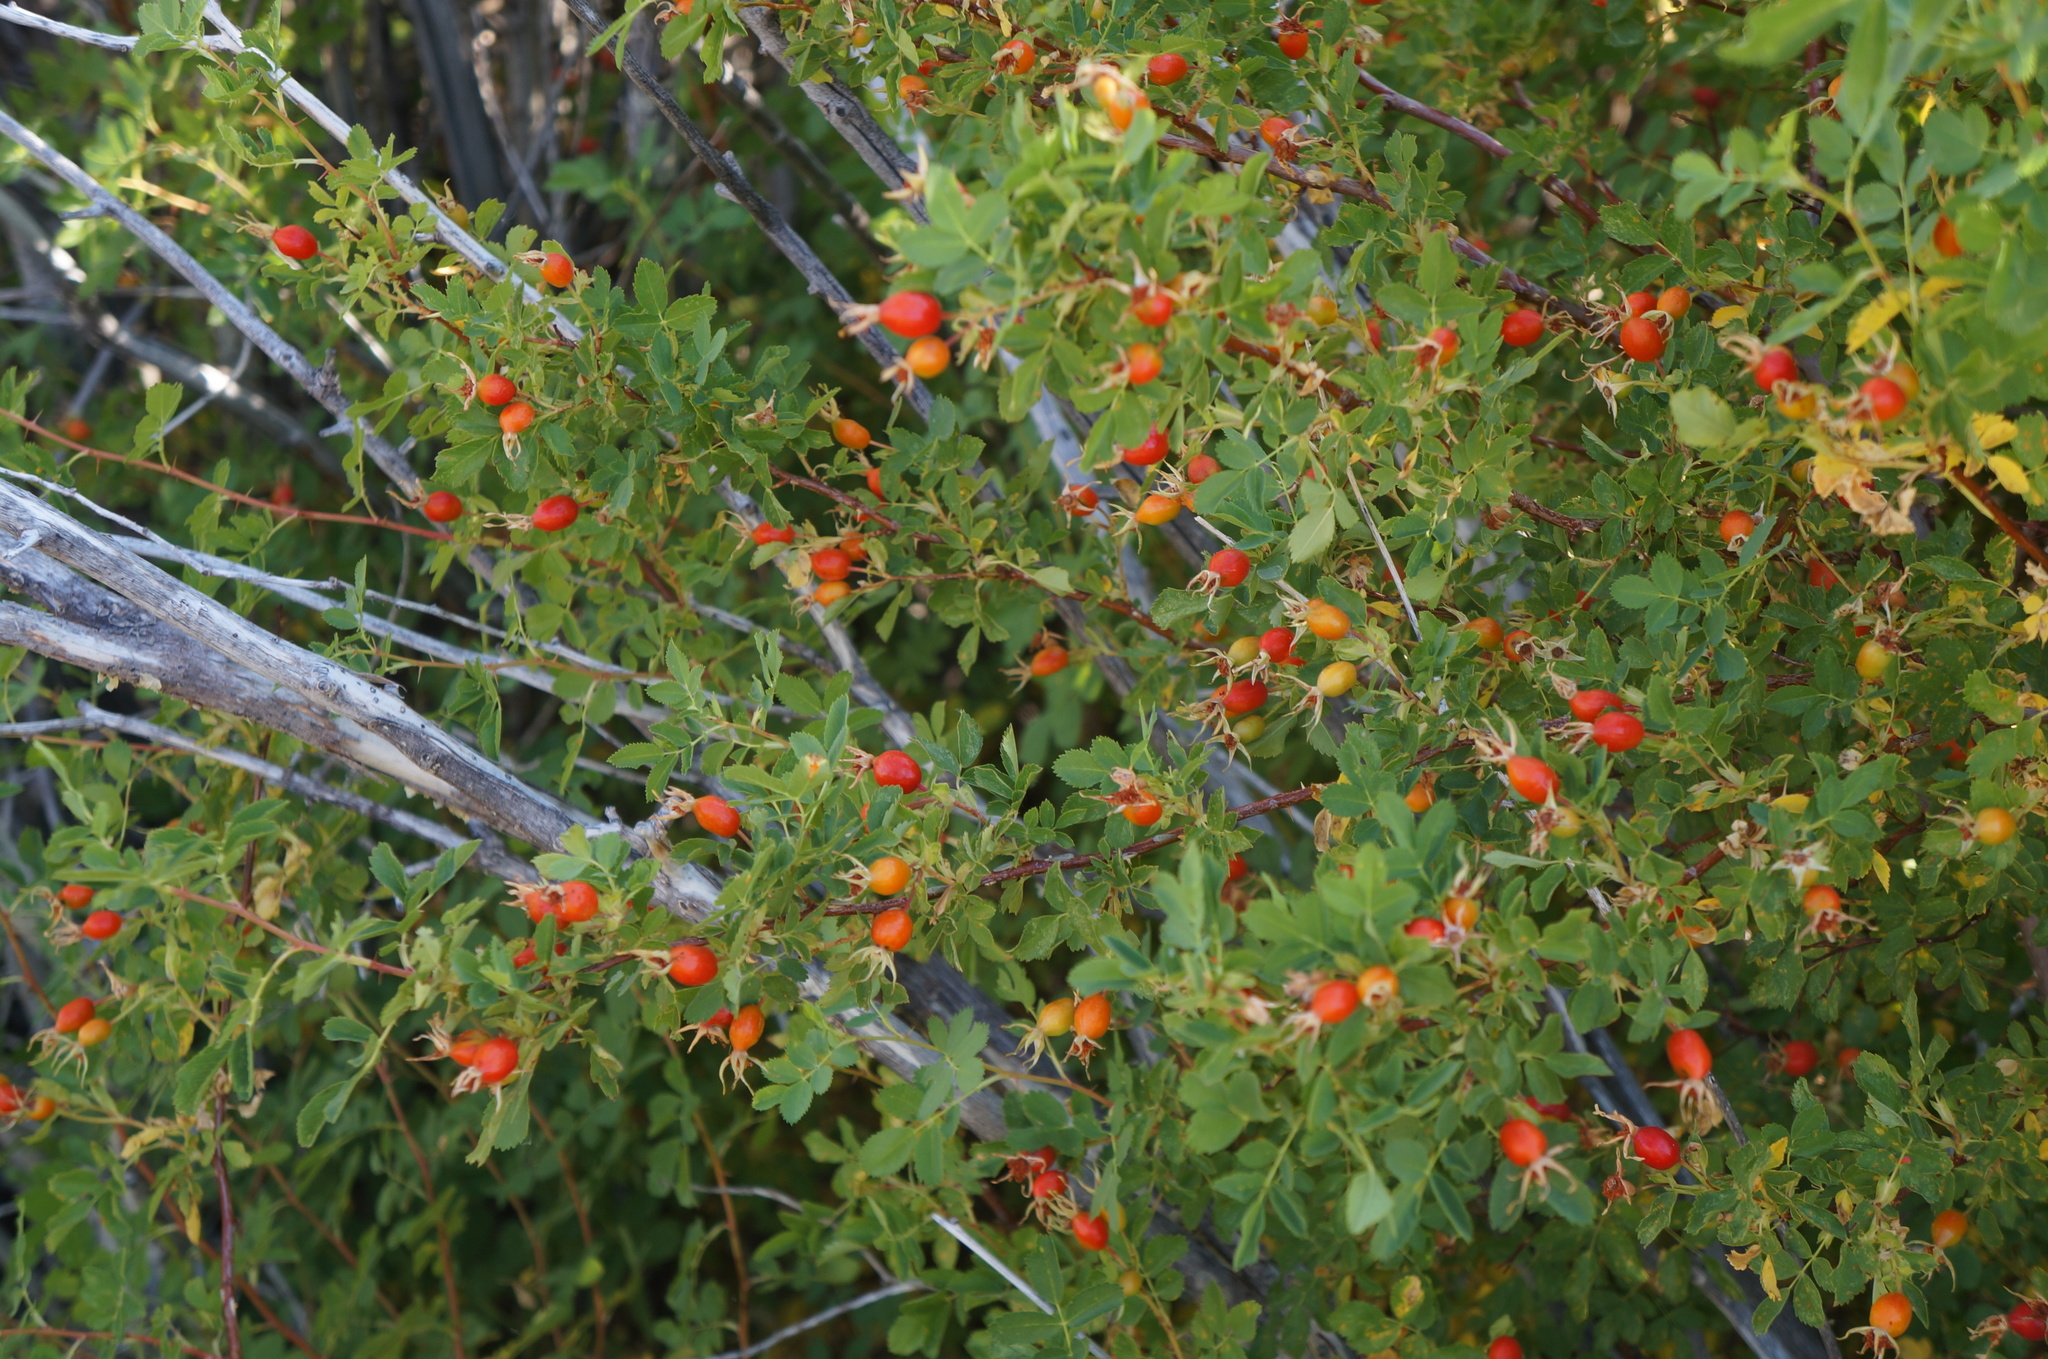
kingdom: Plantae
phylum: Tracheophyta
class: Magnoliopsida
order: Rosales
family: Rosaceae
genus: Rosa
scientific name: Rosa woodsii
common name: Woods's rose
